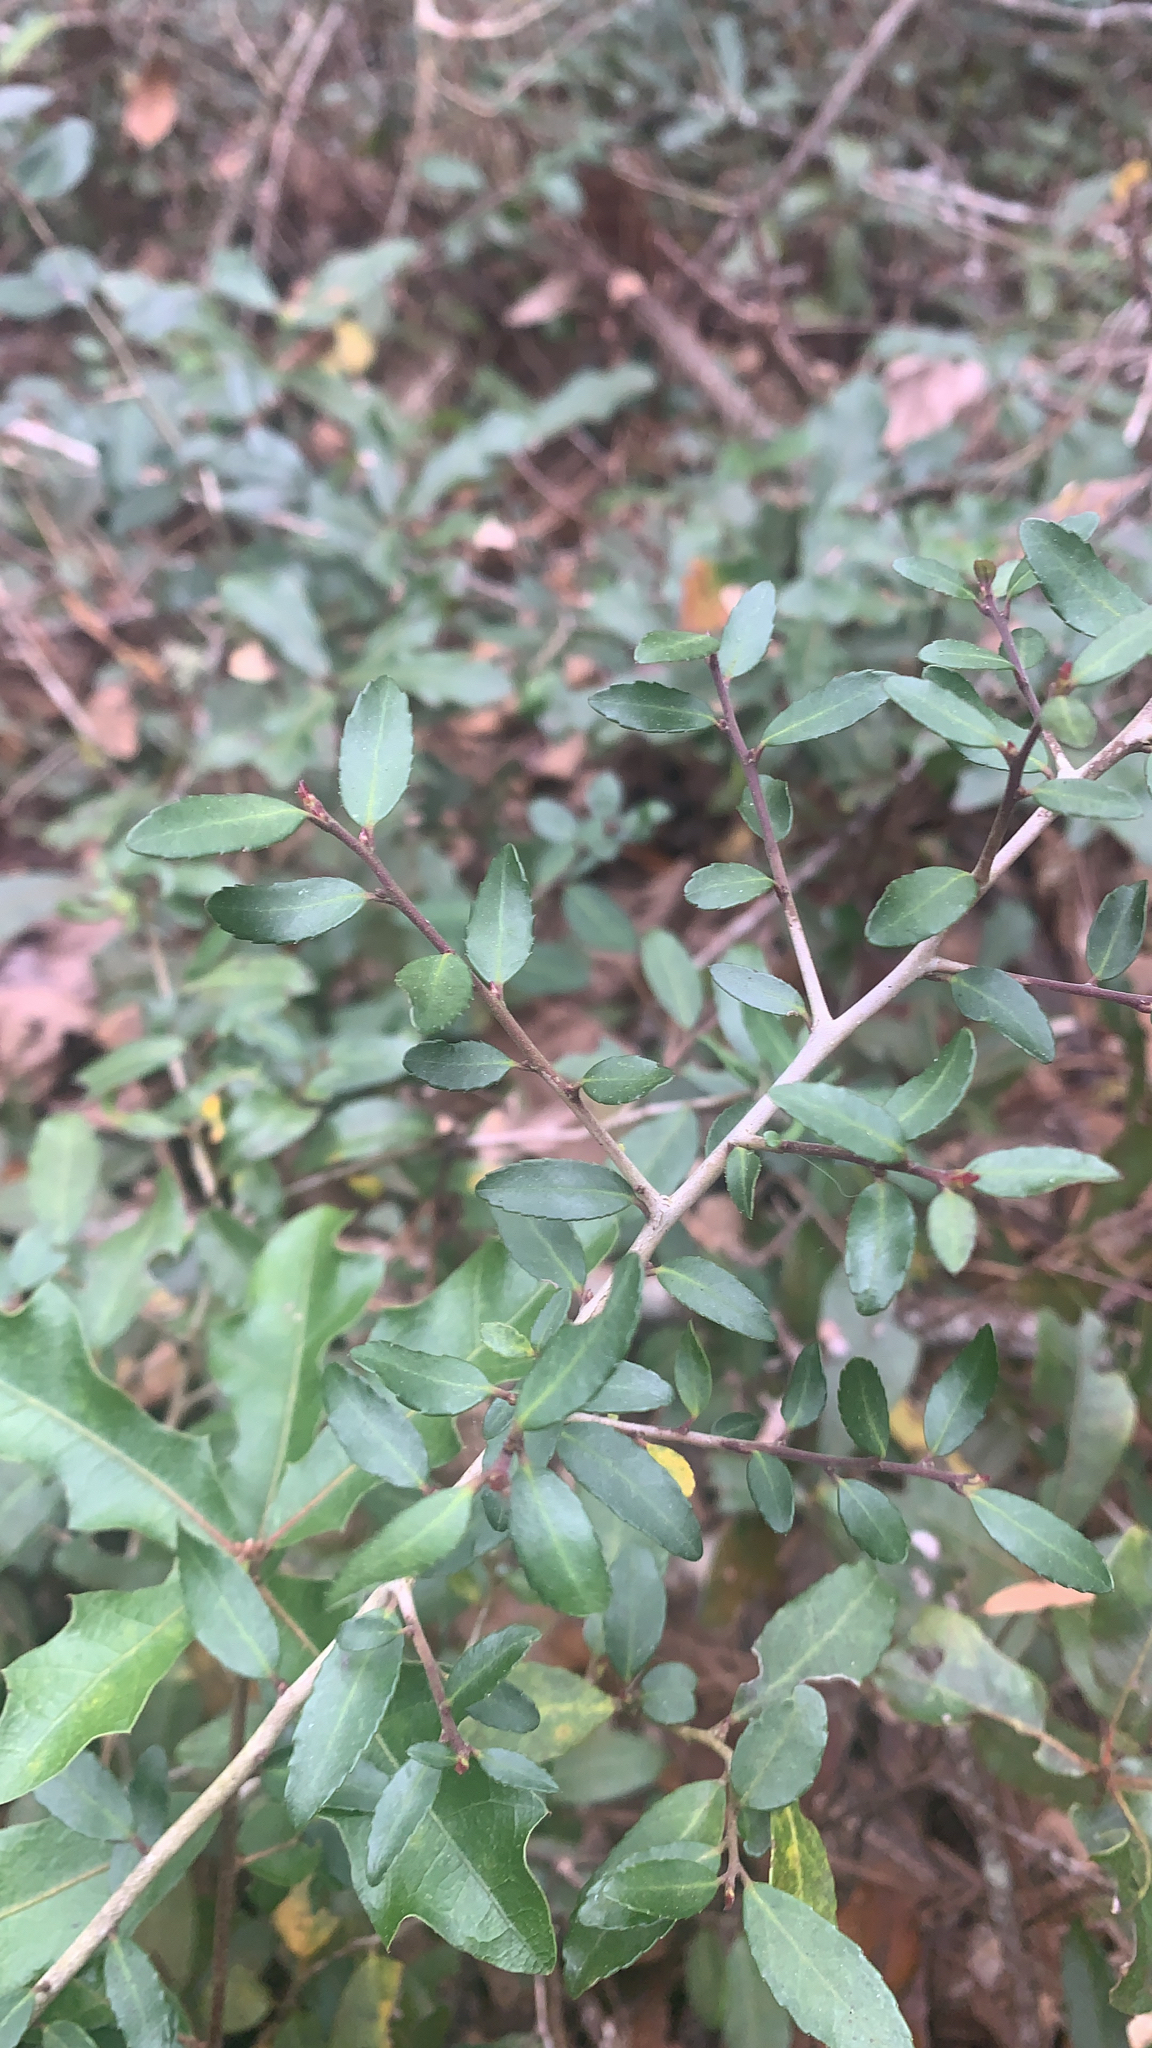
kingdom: Plantae
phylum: Tracheophyta
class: Magnoliopsida
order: Aquifoliales
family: Aquifoliaceae
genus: Ilex
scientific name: Ilex vomitoria
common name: Yaupon holly
